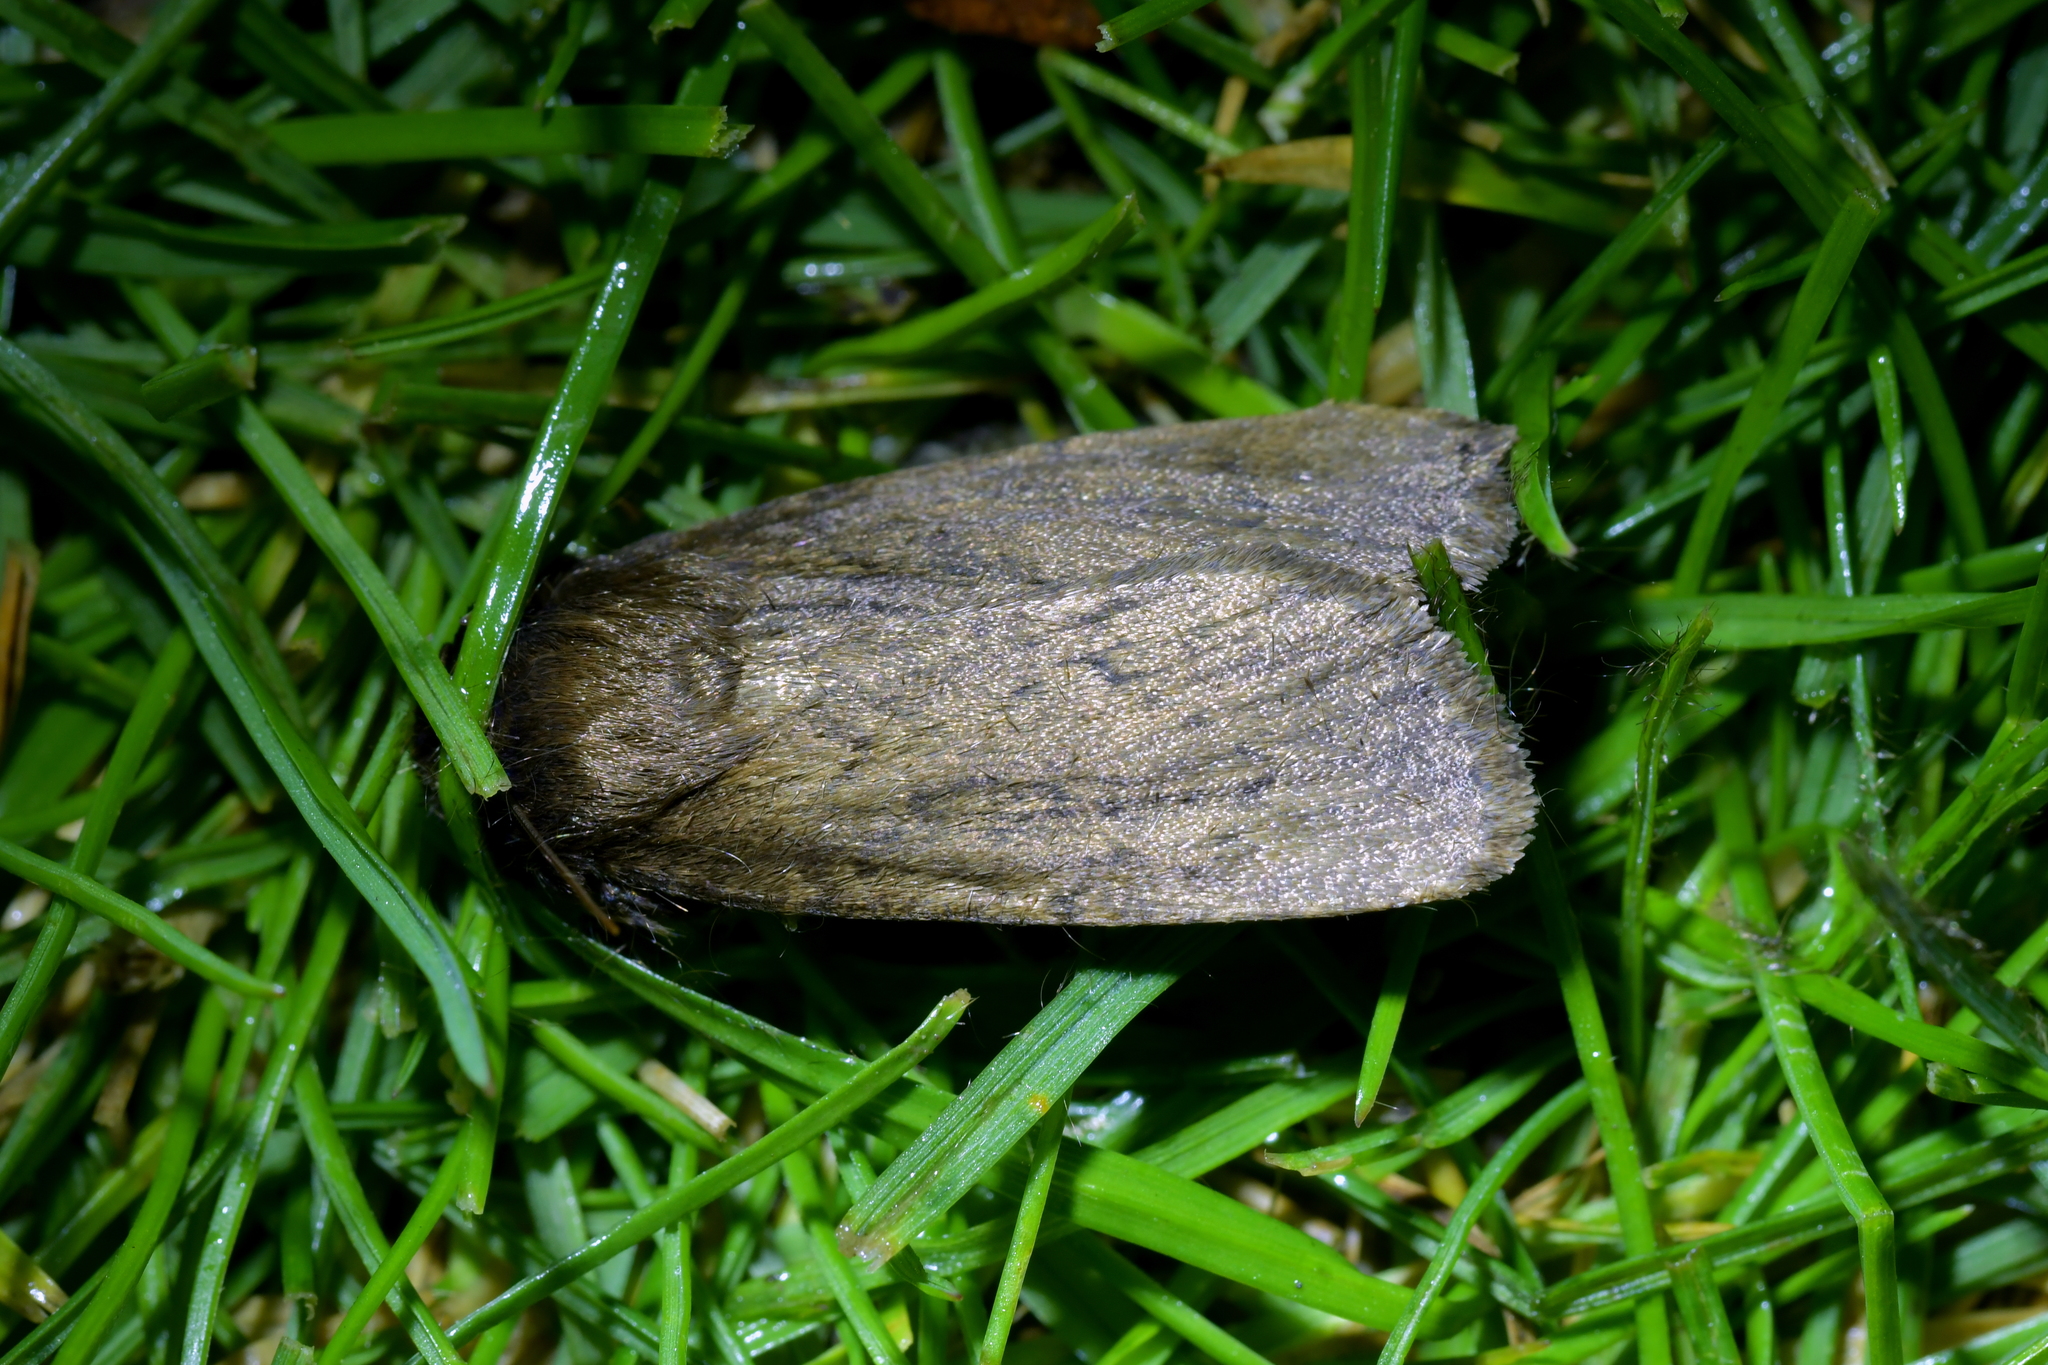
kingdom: Animalia
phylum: Arthropoda
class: Insecta
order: Lepidoptera
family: Noctuidae
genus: Bityla
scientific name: Bityla defigurata
